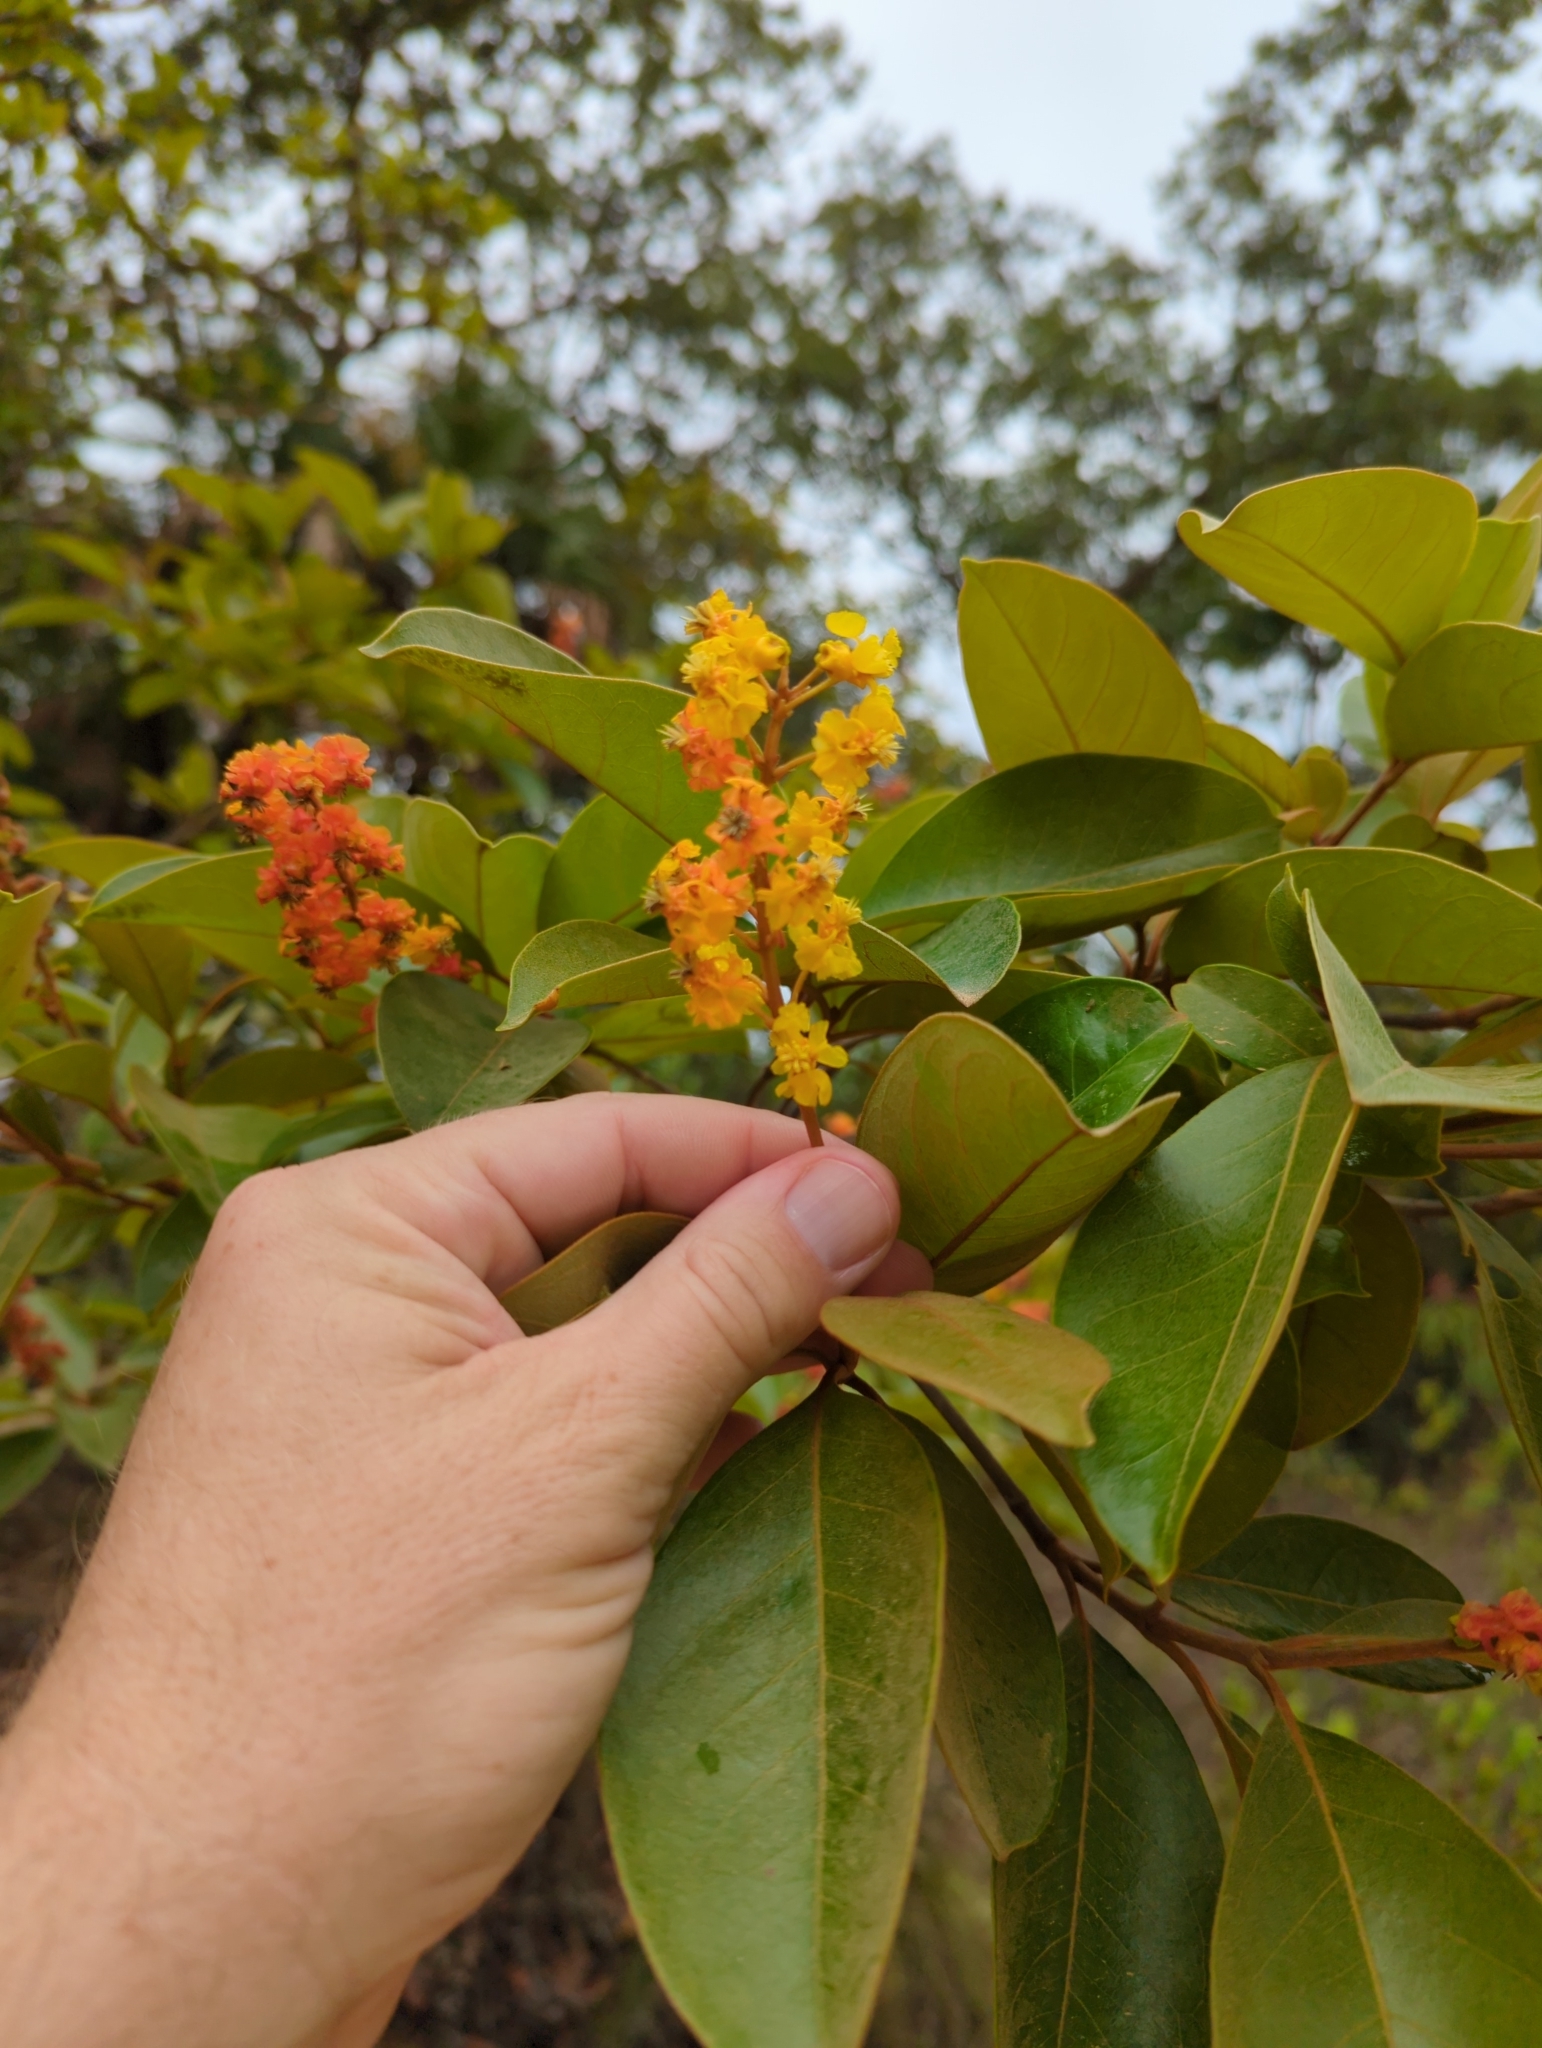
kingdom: Plantae
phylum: Tracheophyta
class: Magnoliopsida
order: Malpighiales
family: Malpighiaceae
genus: Byrsonima
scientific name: Byrsonima crassifolia
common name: Golden spoon
